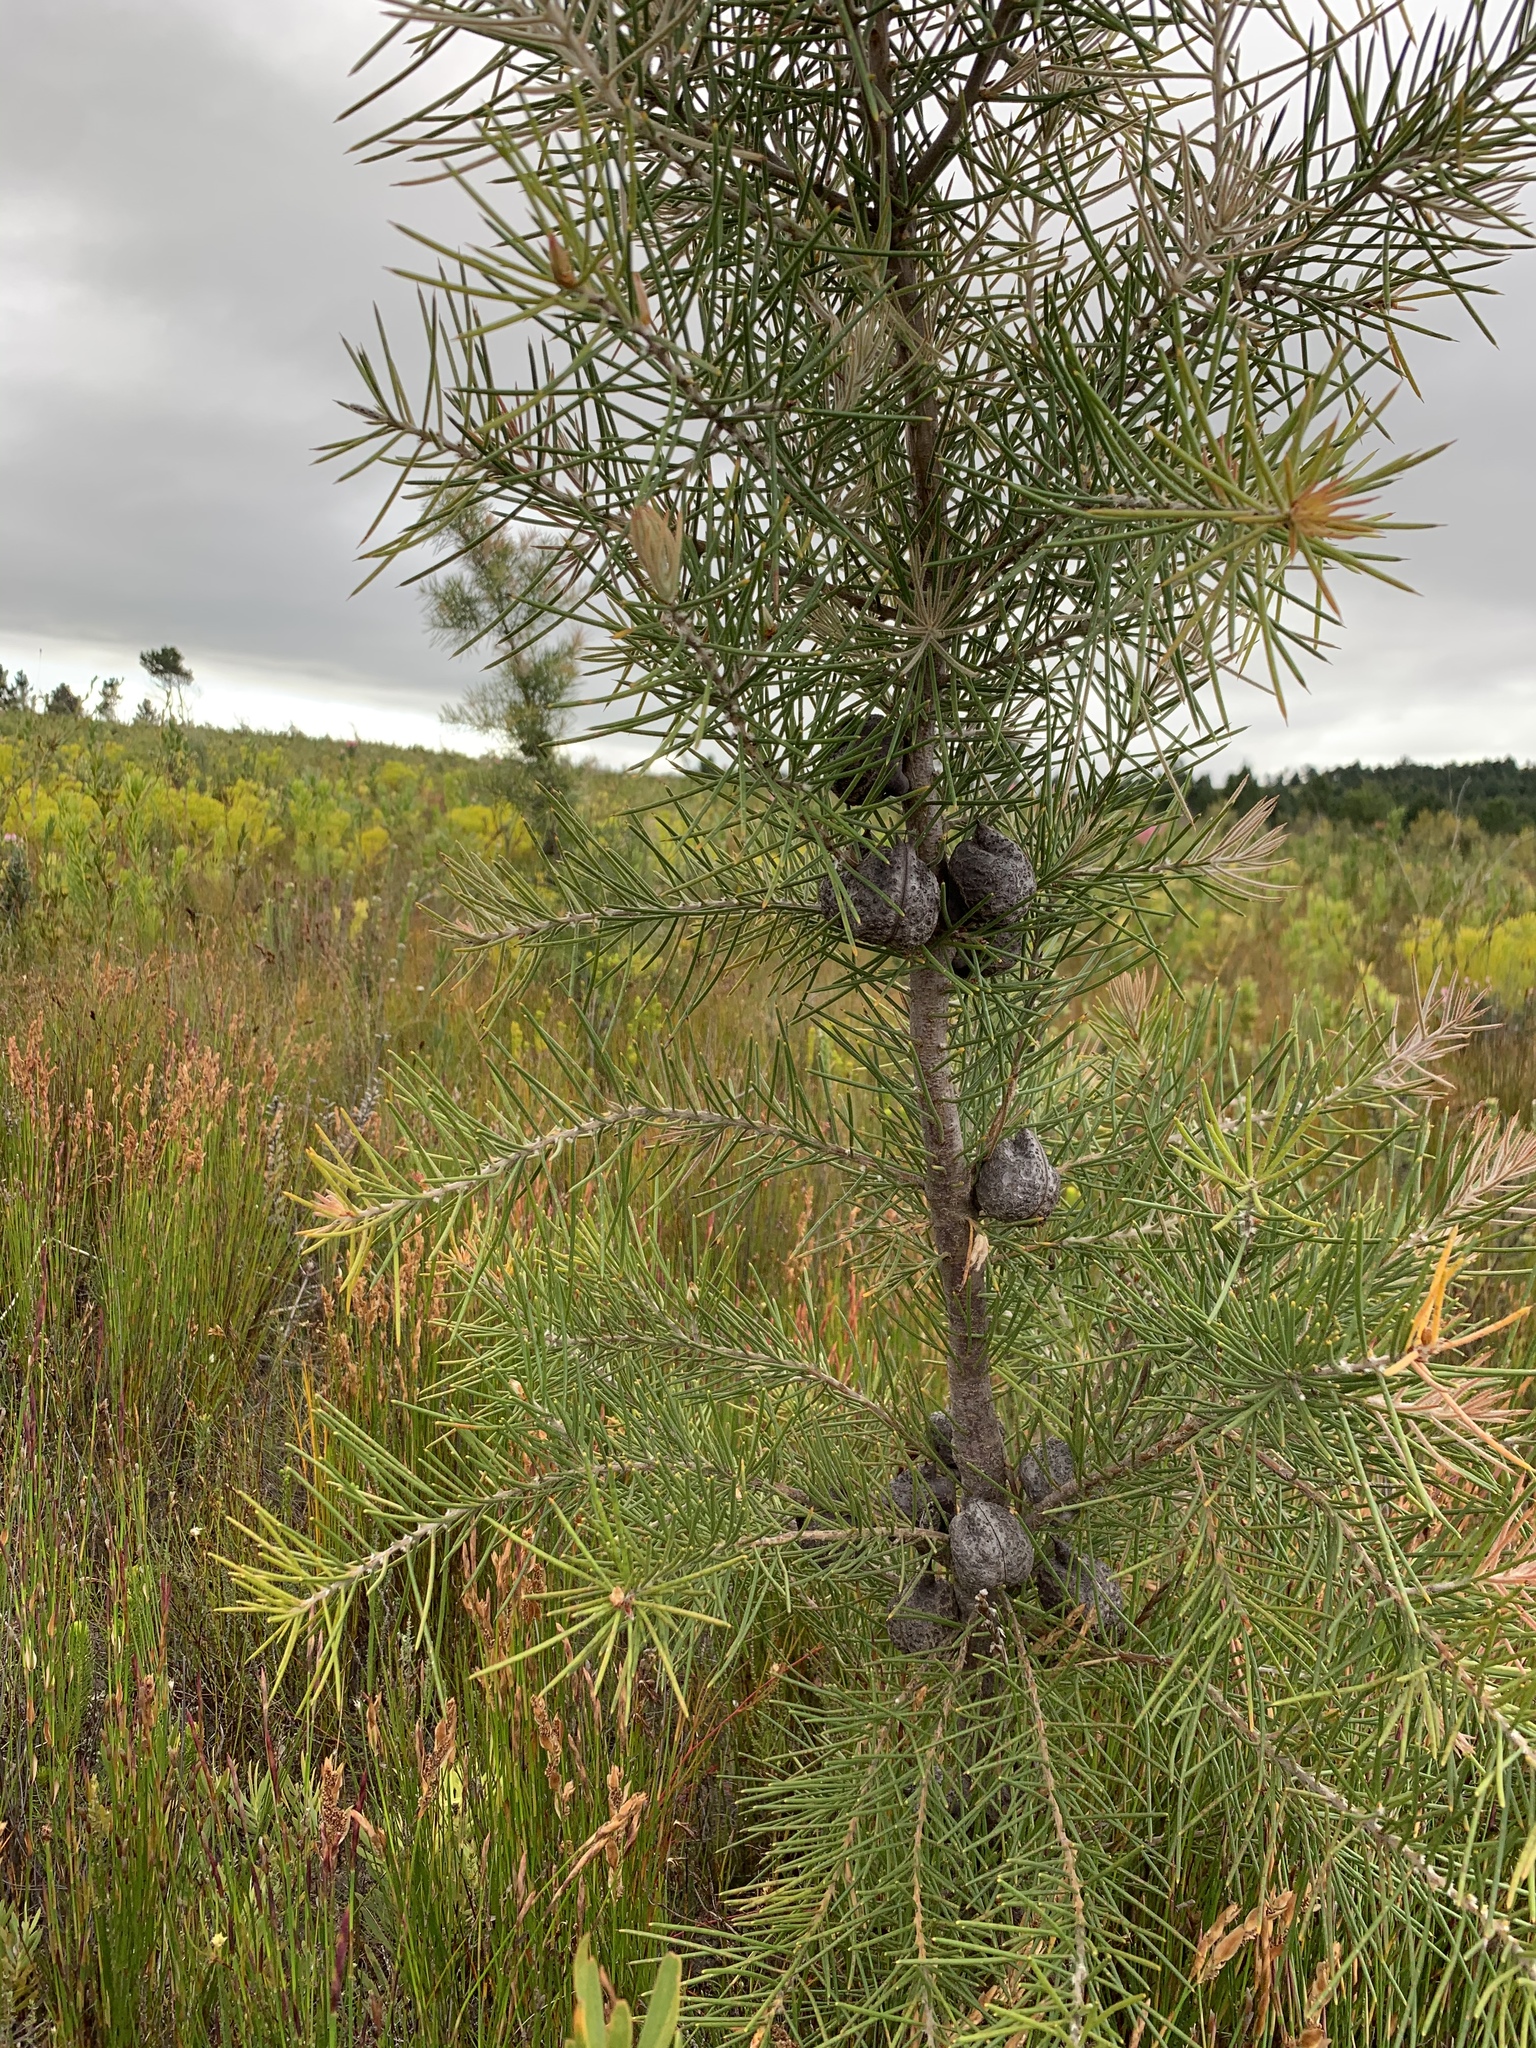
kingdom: Plantae
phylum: Tracheophyta
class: Magnoliopsida
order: Proteales
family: Proteaceae
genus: Hakea
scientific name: Hakea gibbosa
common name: Rock hakea
